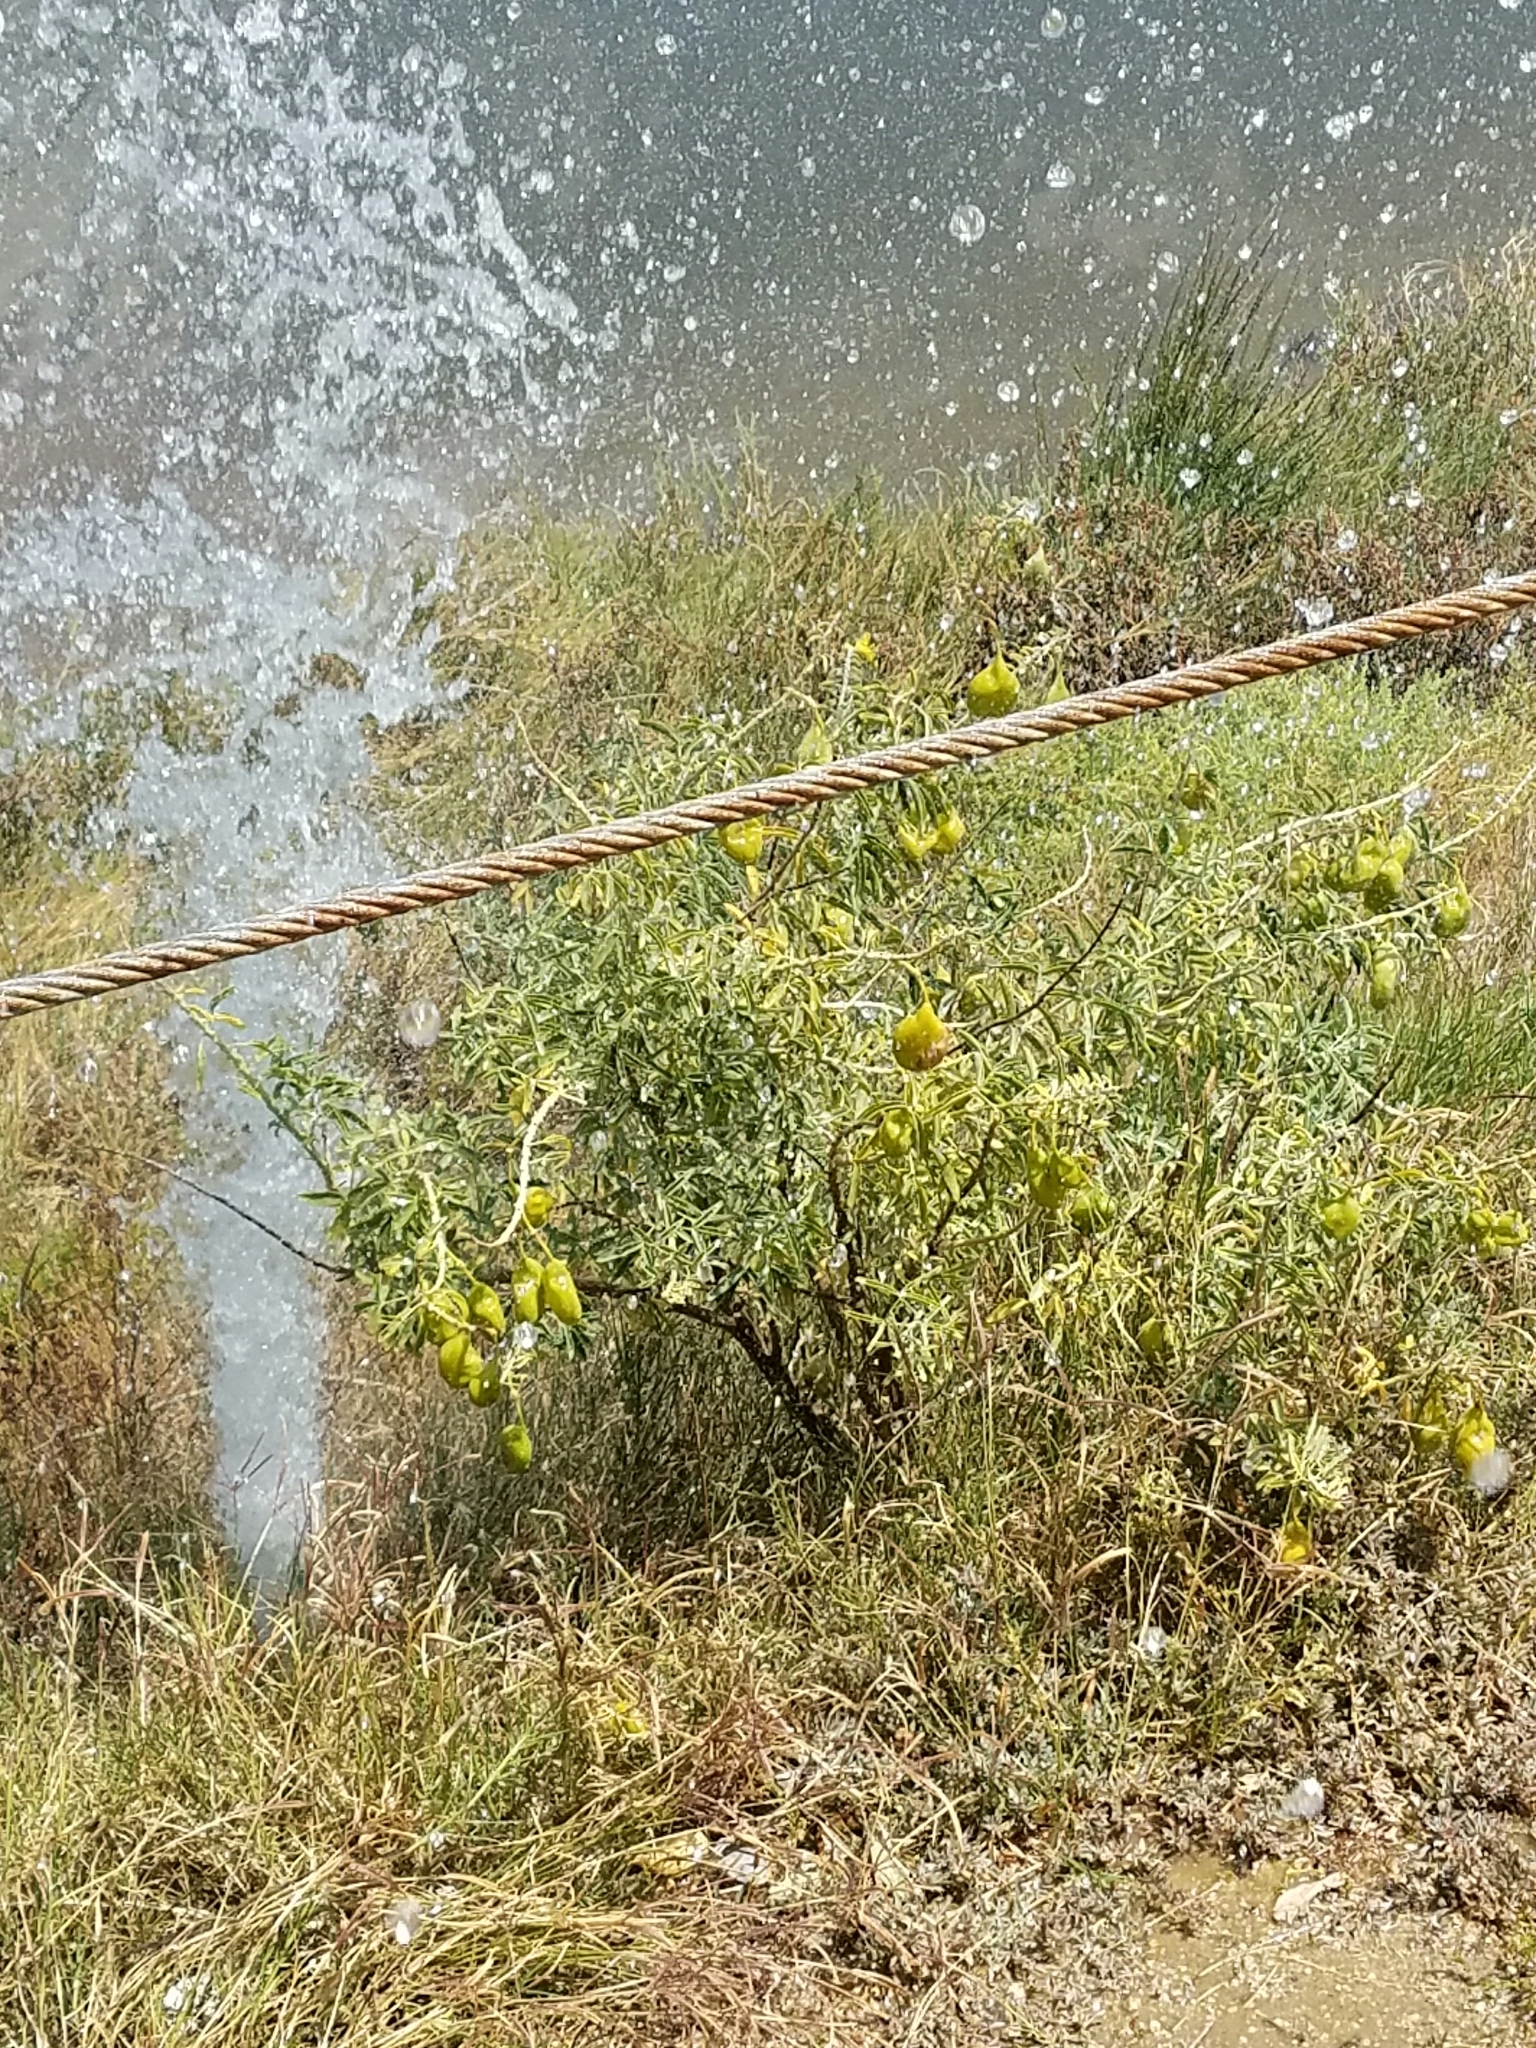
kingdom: Plantae
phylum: Tracheophyta
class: Magnoliopsida
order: Brassicales
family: Cleomaceae
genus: Cleomella
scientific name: Cleomella arborea
